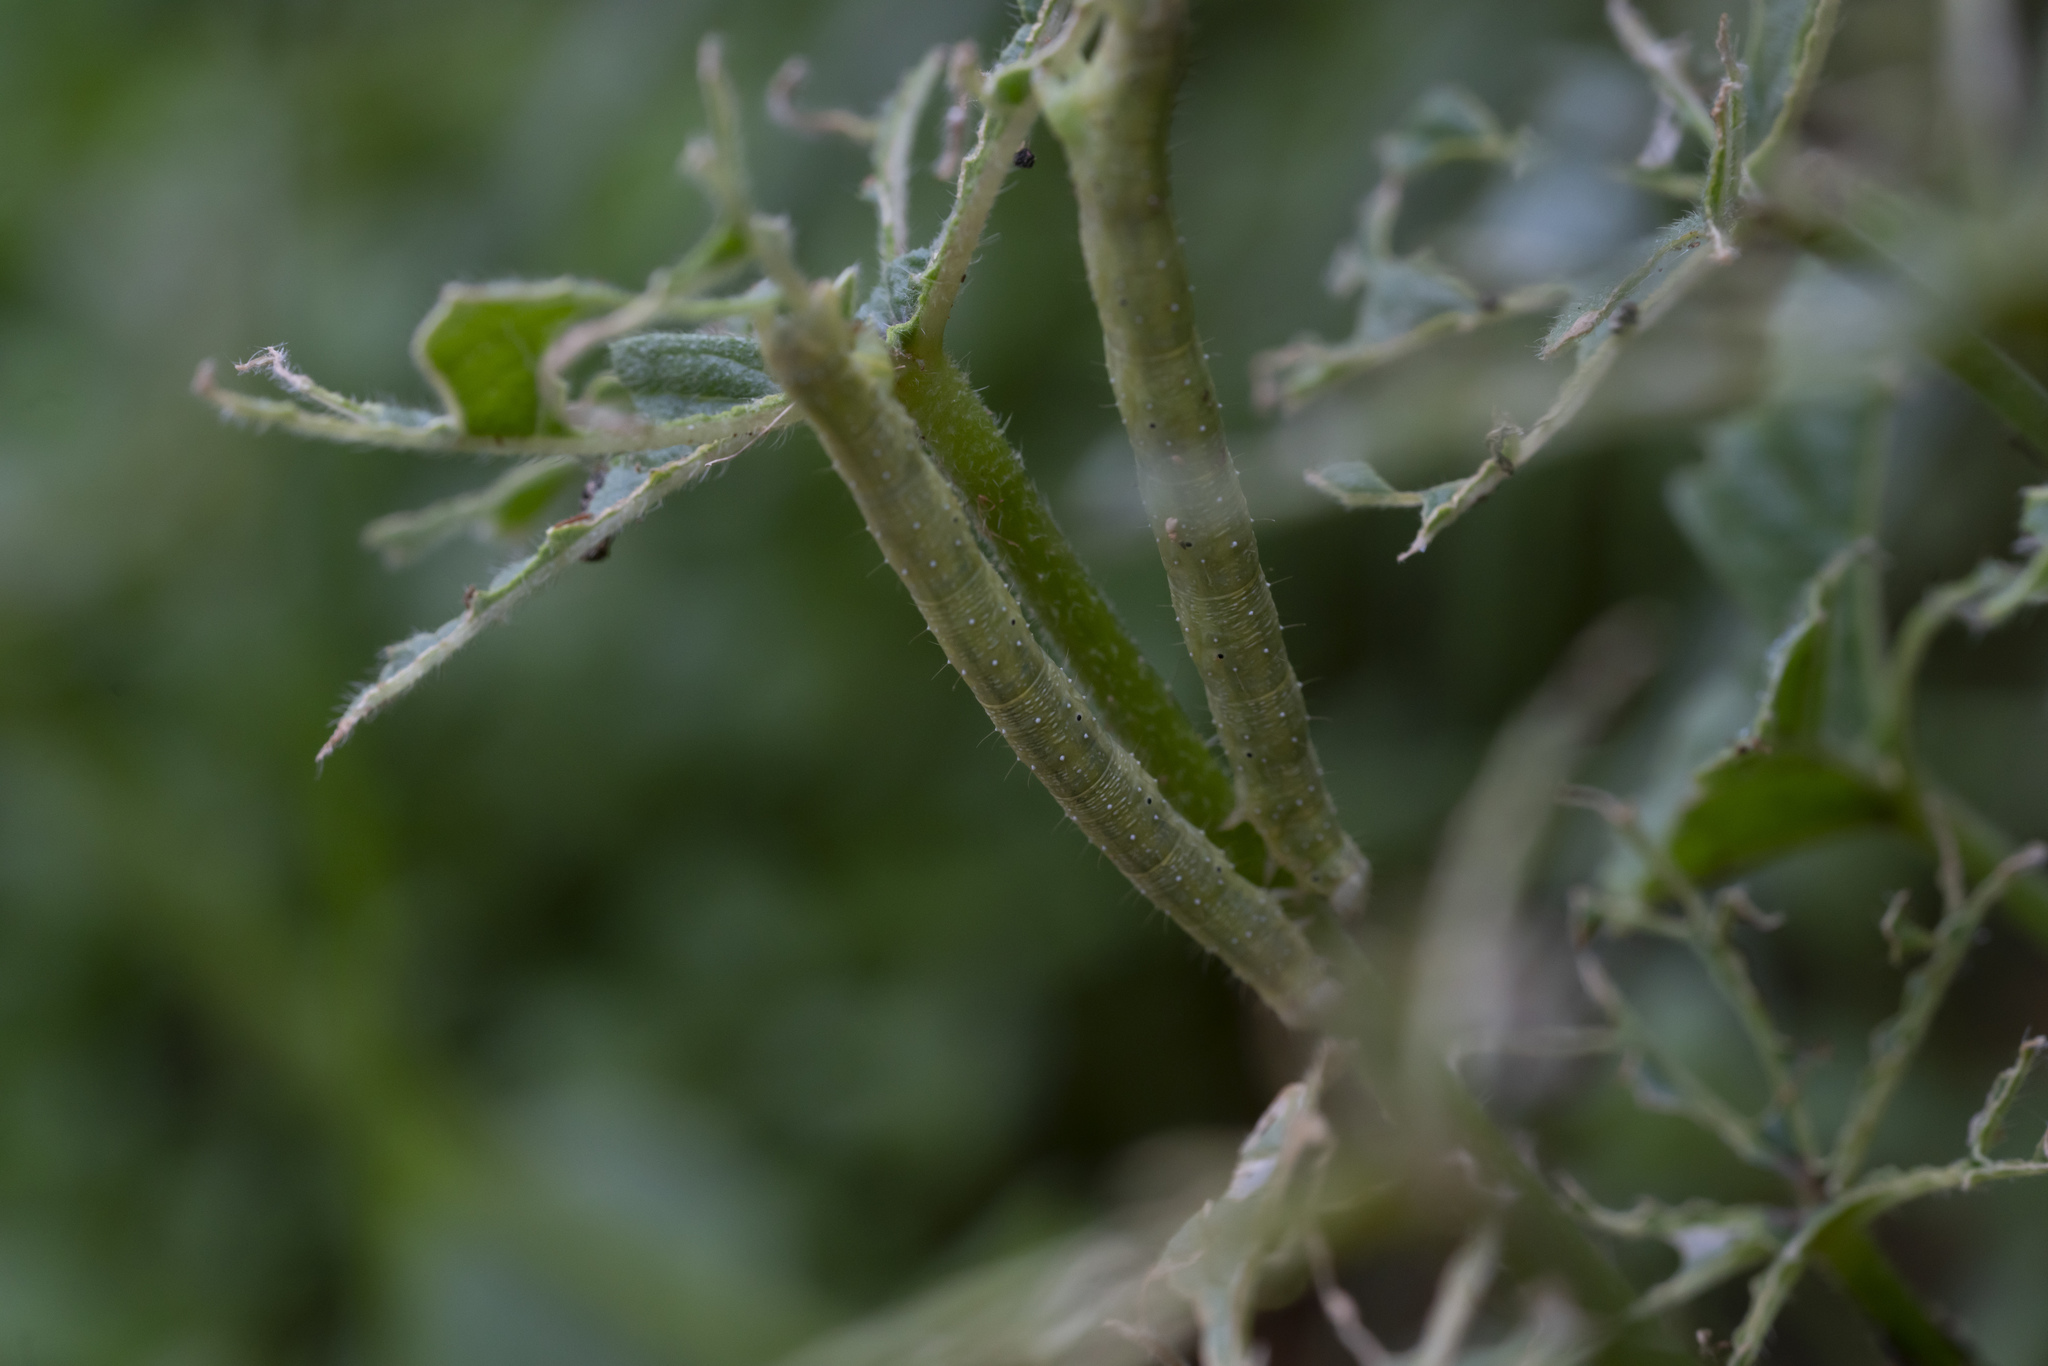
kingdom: Animalia
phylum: Arthropoda
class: Insecta
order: Lepidoptera
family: Geometridae
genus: Larentia
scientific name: Larentia clavaria
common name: Mallow
